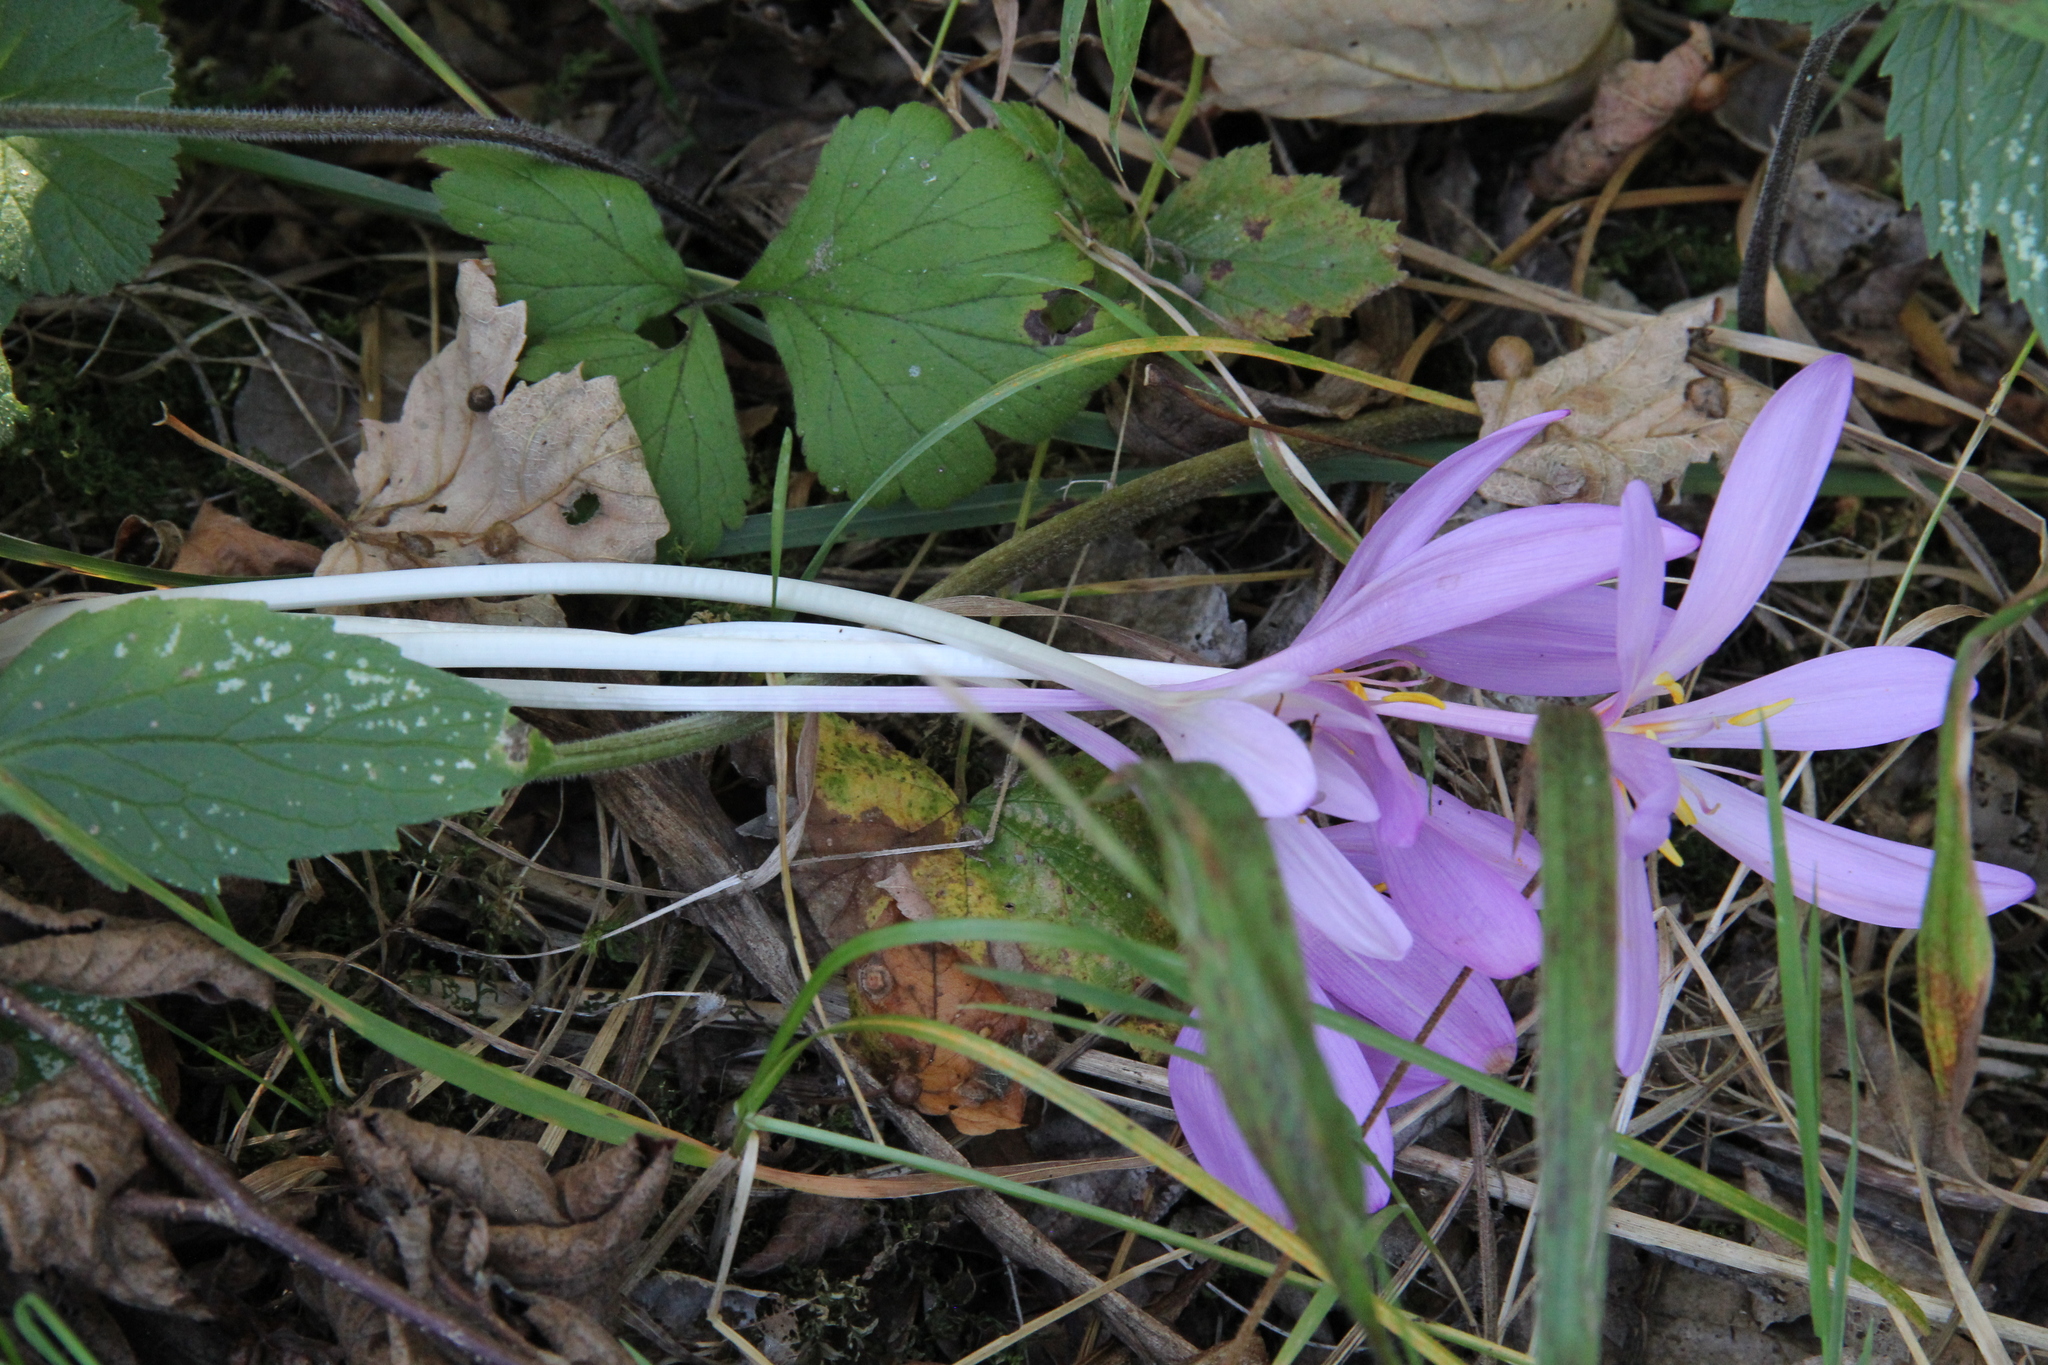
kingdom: Plantae
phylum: Tracheophyta
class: Liliopsida
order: Liliales
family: Colchicaceae
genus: Colchicum
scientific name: Colchicum autumnale
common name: Autumn crocus
